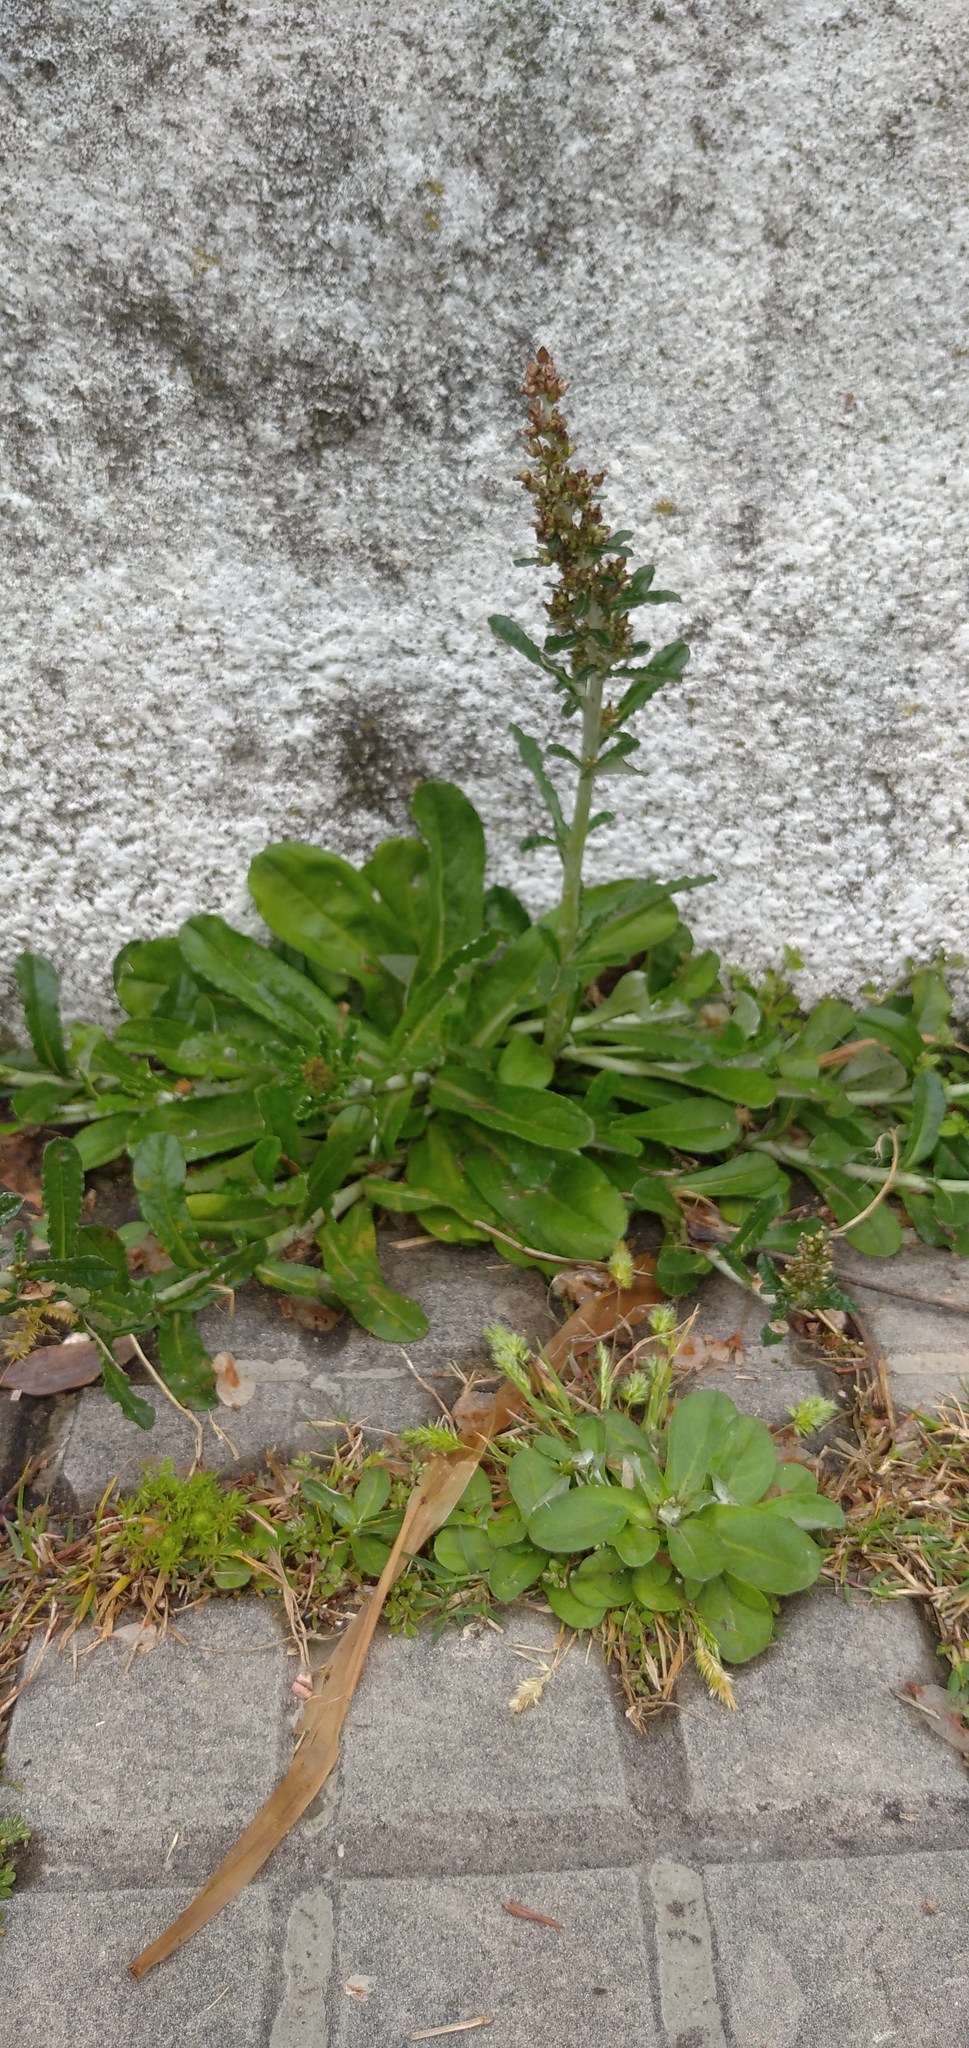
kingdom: Plantae
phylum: Tracheophyta
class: Magnoliopsida
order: Asterales
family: Asteraceae
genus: Gamochaeta
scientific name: Gamochaeta americana
